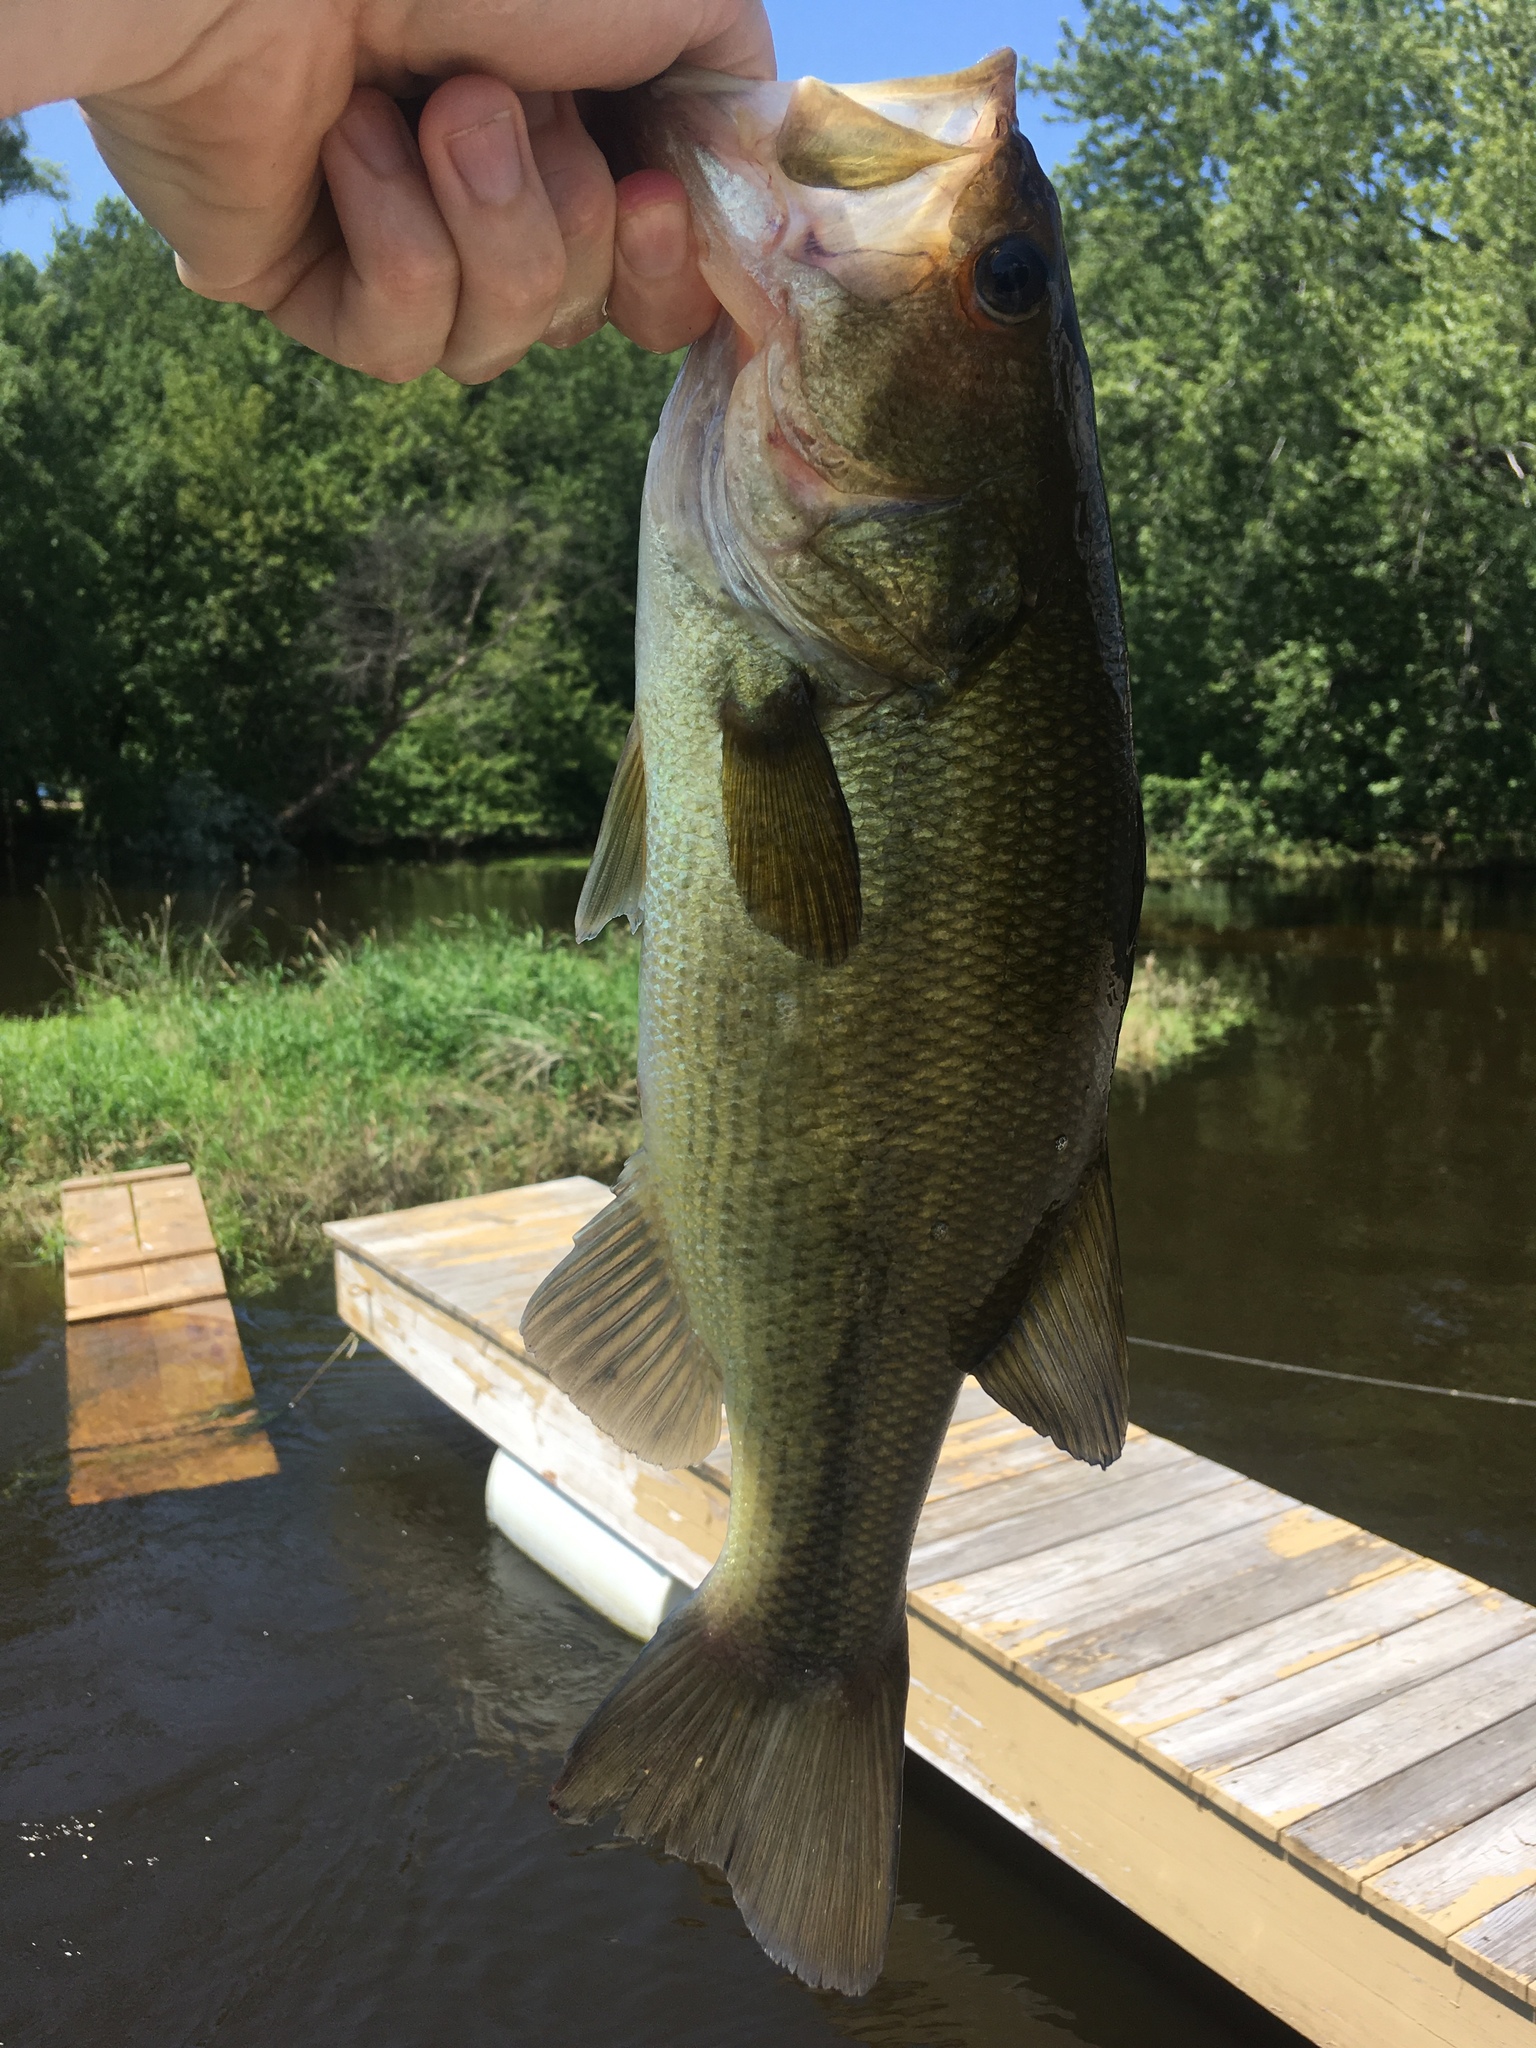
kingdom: Animalia
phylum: Chordata
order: Perciformes
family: Centrarchidae
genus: Micropterus
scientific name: Micropterus
